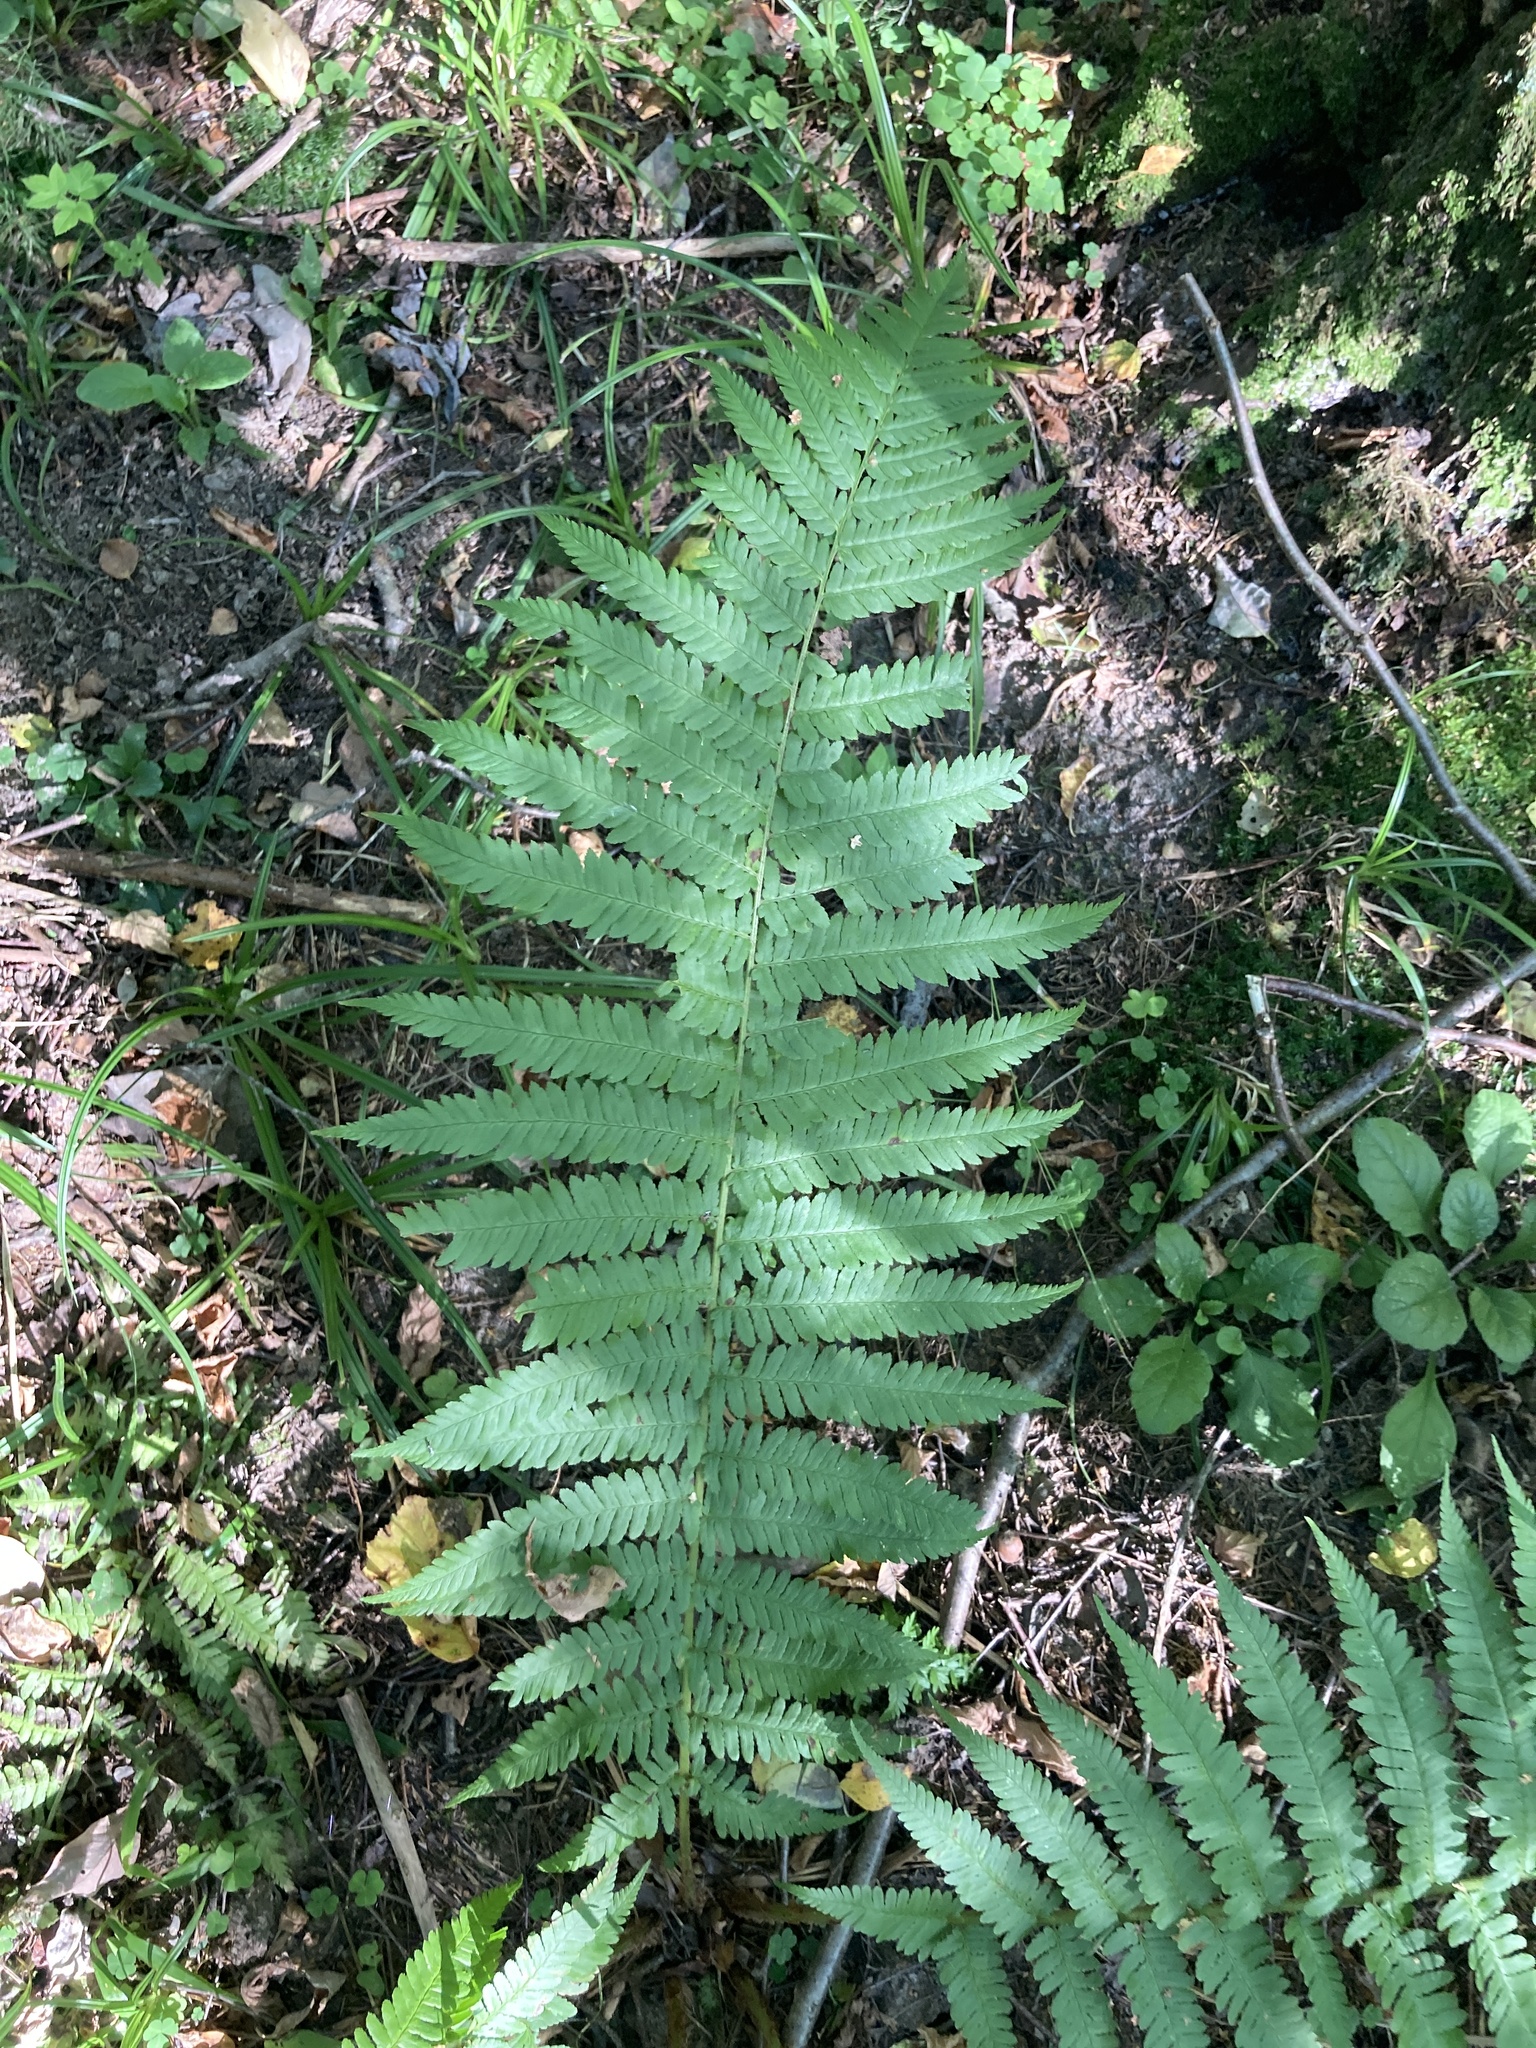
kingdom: Plantae
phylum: Tracheophyta
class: Polypodiopsida
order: Polypodiales
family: Dryopteridaceae
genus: Dryopteris
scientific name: Dryopteris filix-mas
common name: Male fern
